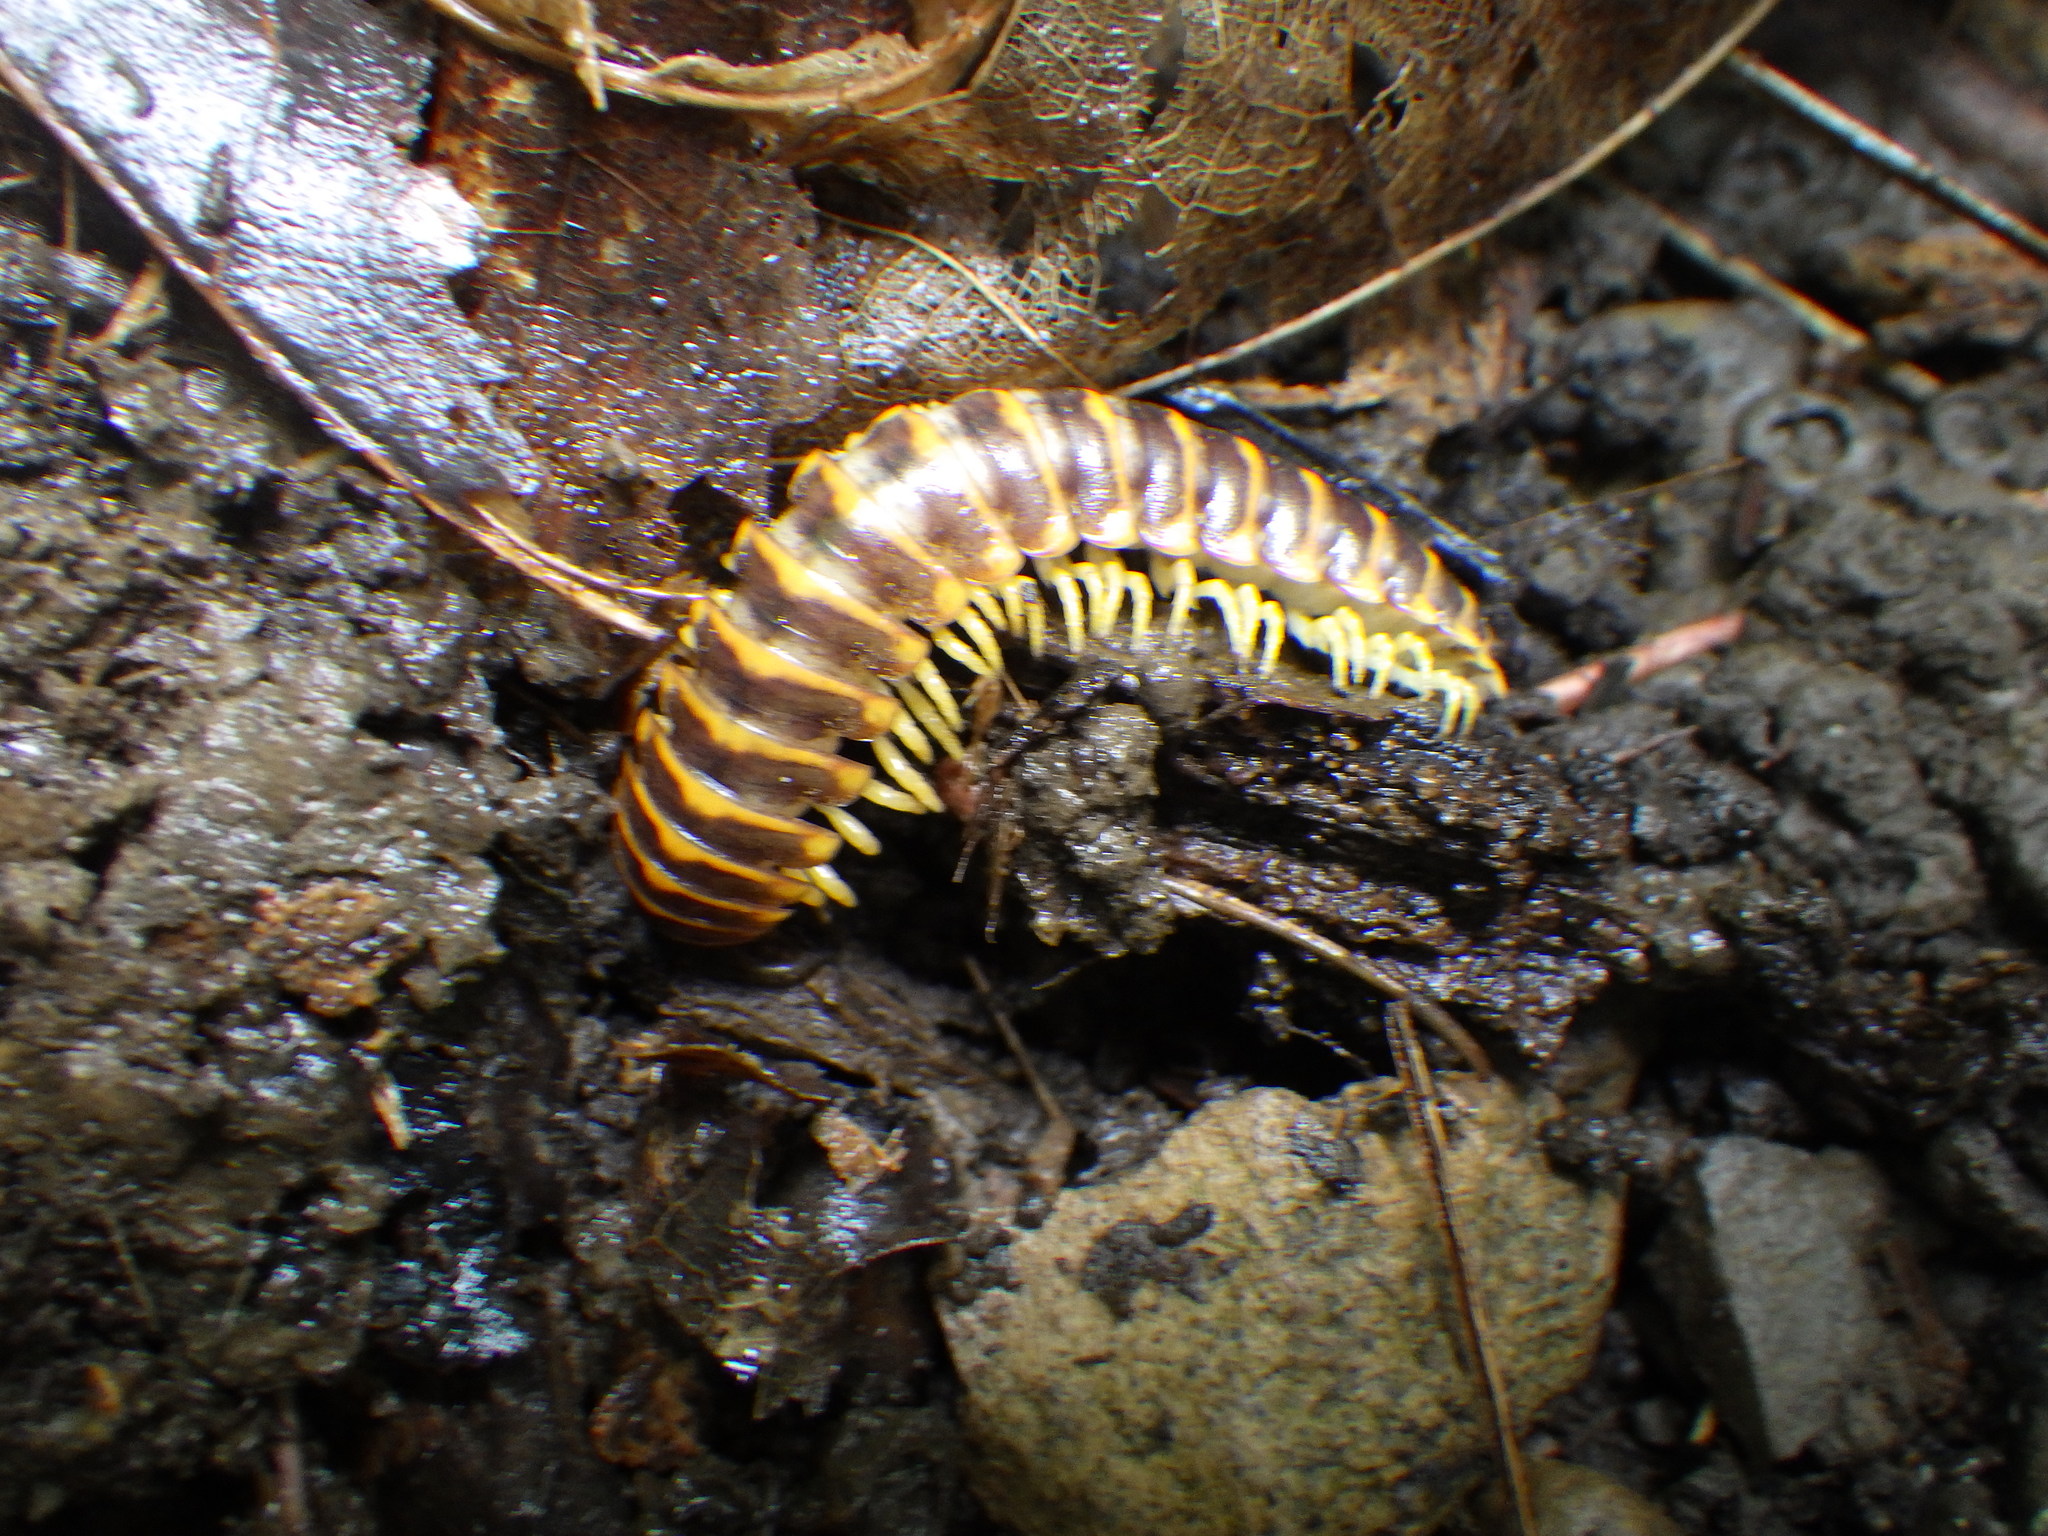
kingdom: Animalia
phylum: Arthropoda
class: Diplopoda
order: Polydesmida
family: Xystodesmidae
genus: Apheloria
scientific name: Apheloria virginiensis
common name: Black-and-gold flat millipede
